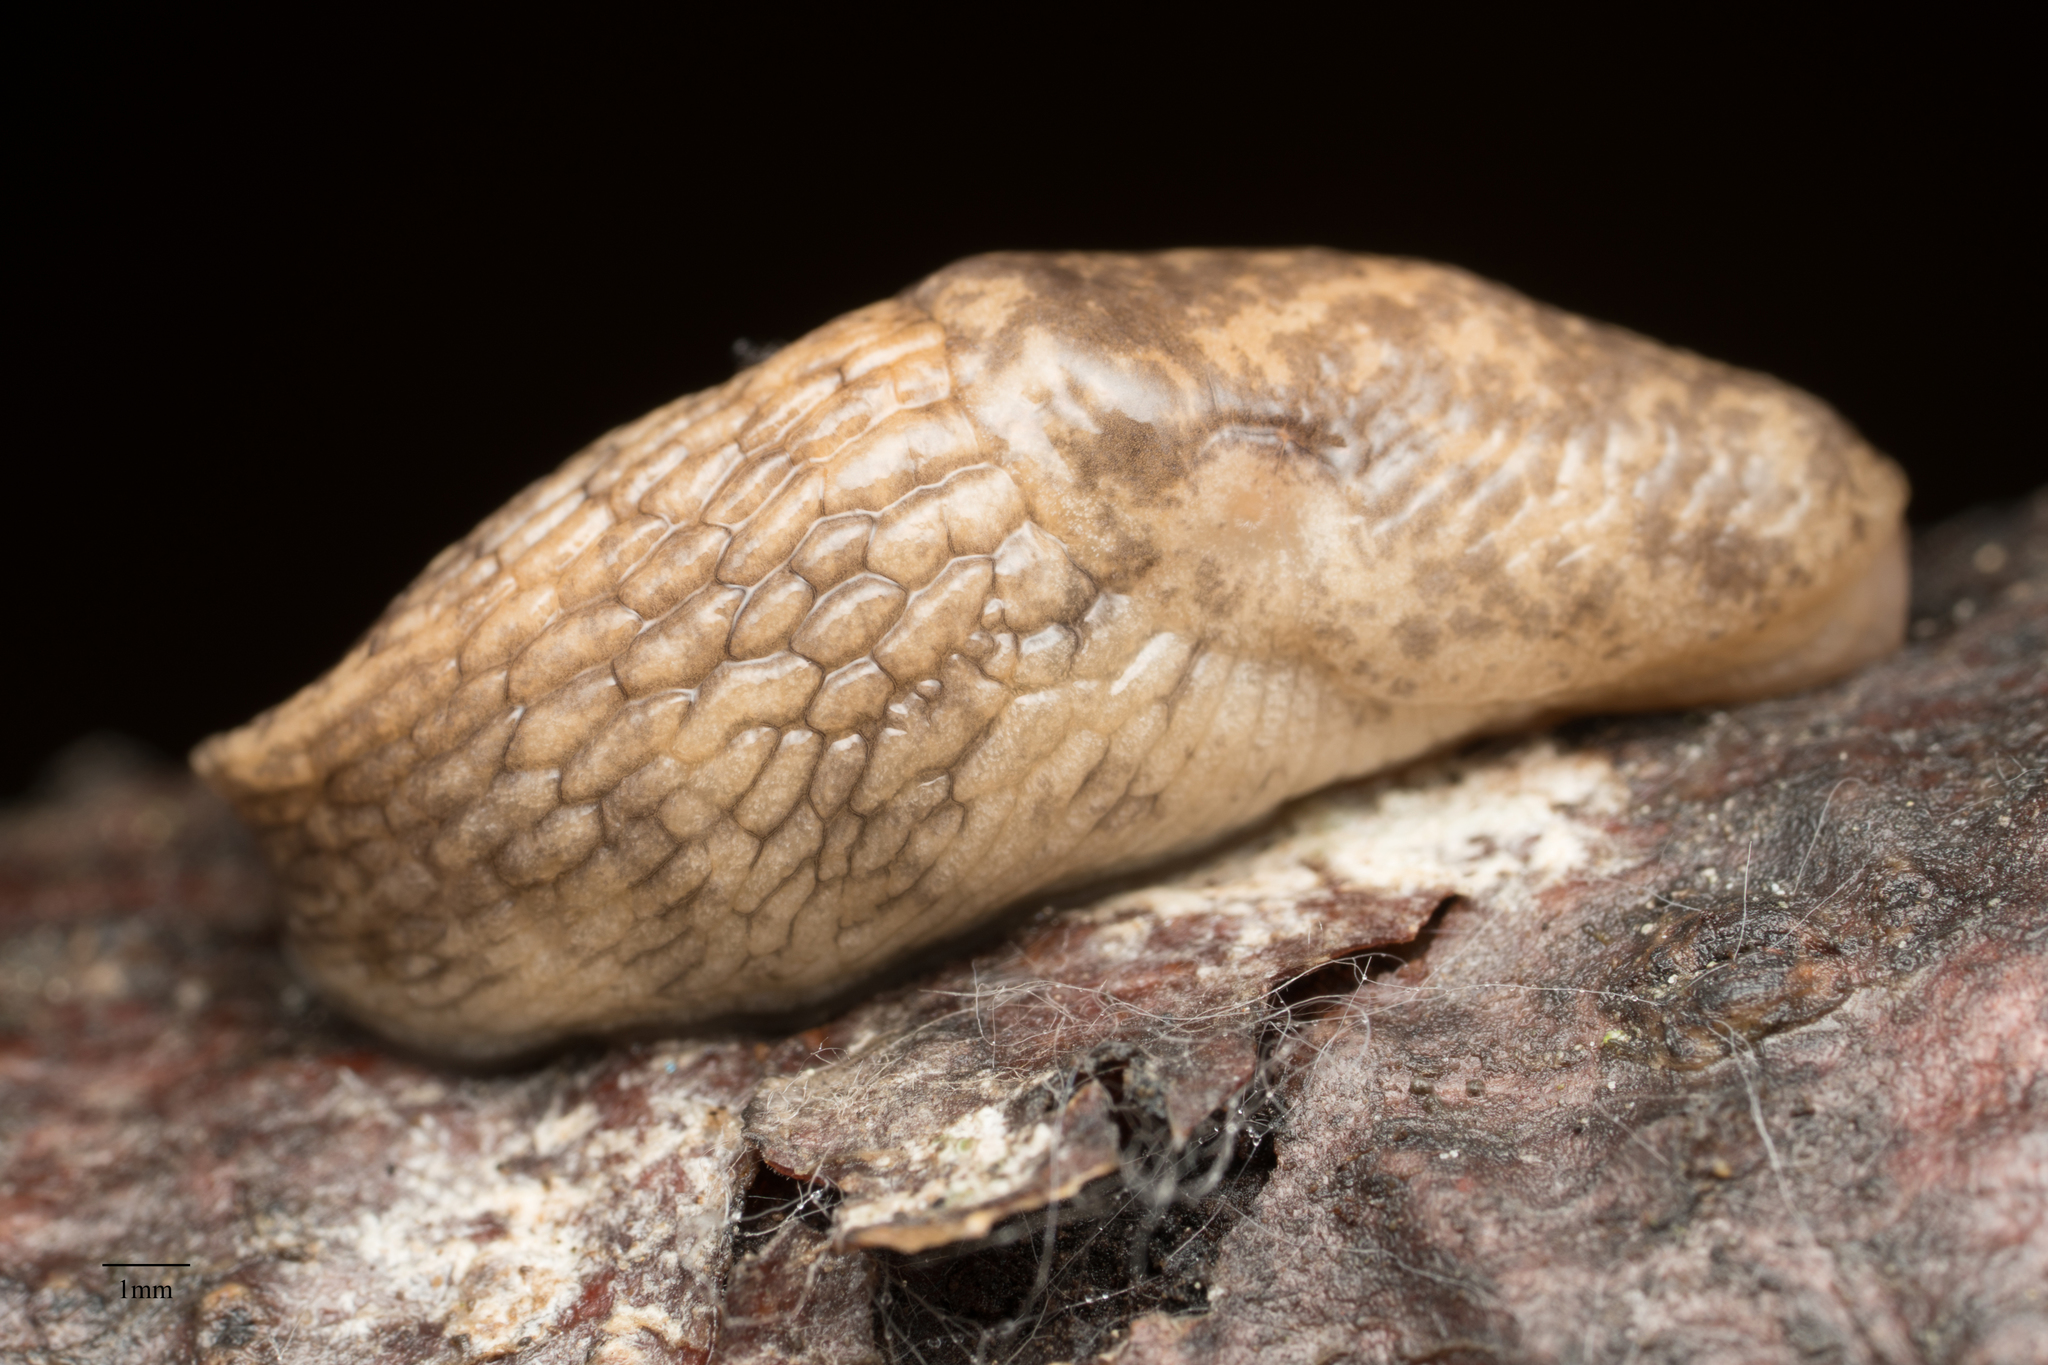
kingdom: Animalia
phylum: Mollusca
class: Gastropoda
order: Stylommatophora
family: Agriolimacidae
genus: Deroceras
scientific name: Deroceras reticulatum
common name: Gray field slug
